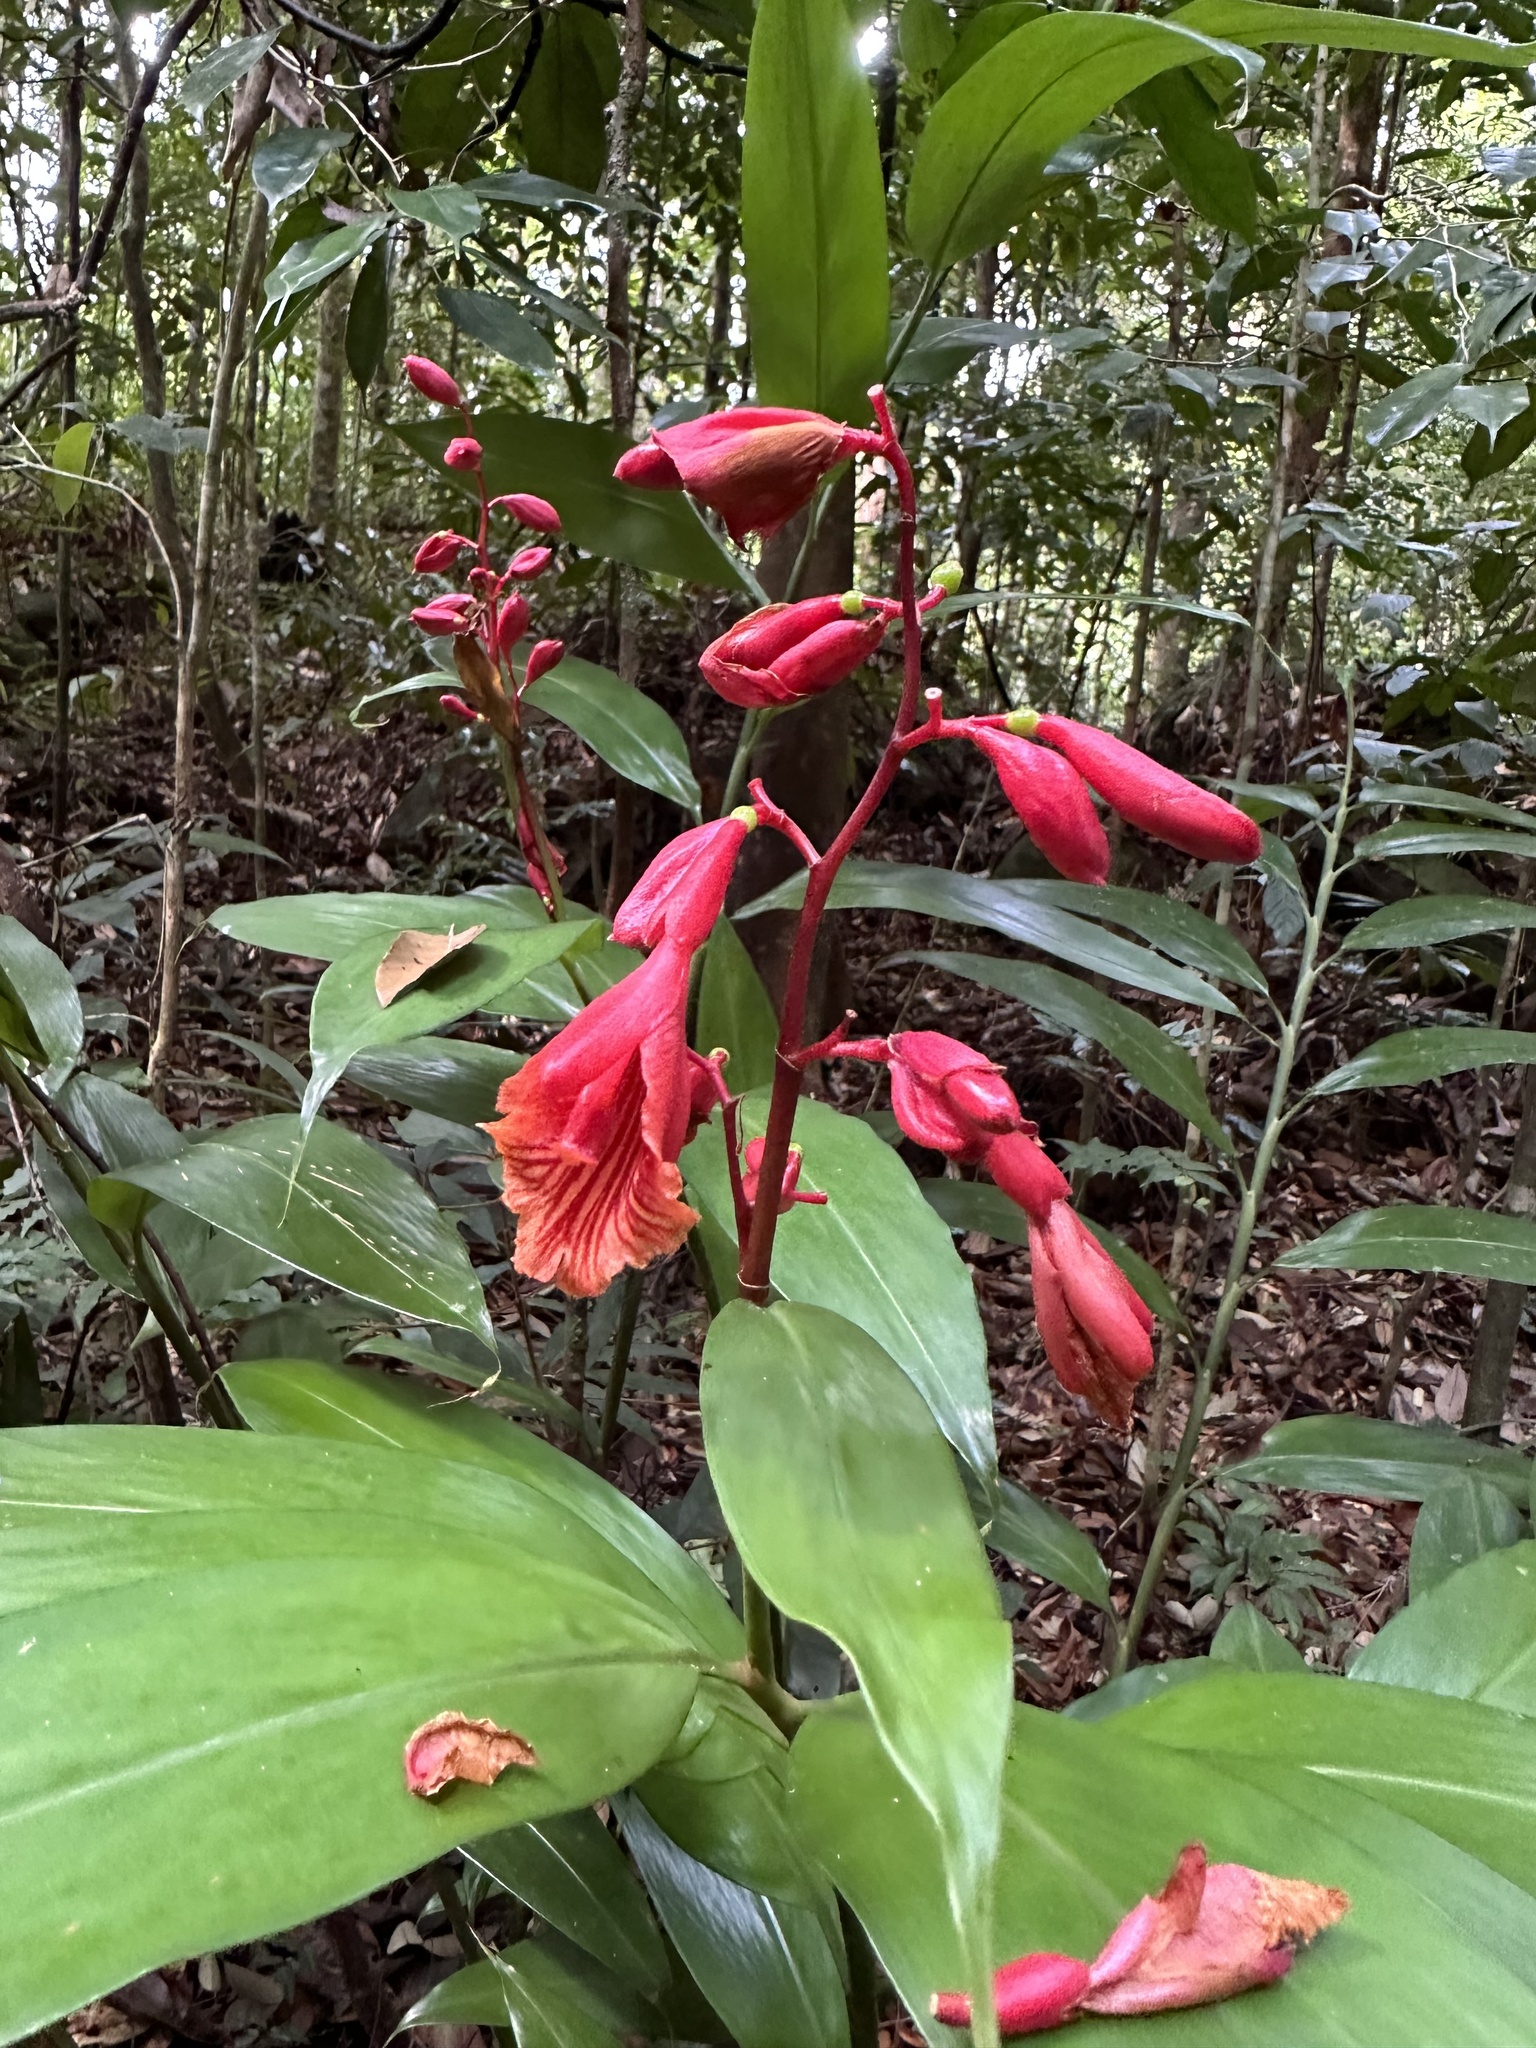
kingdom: Plantae
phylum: Tracheophyta
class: Liliopsida
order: Zingiberales
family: Zingiberaceae
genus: Alpinia
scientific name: Alpinia glabra
